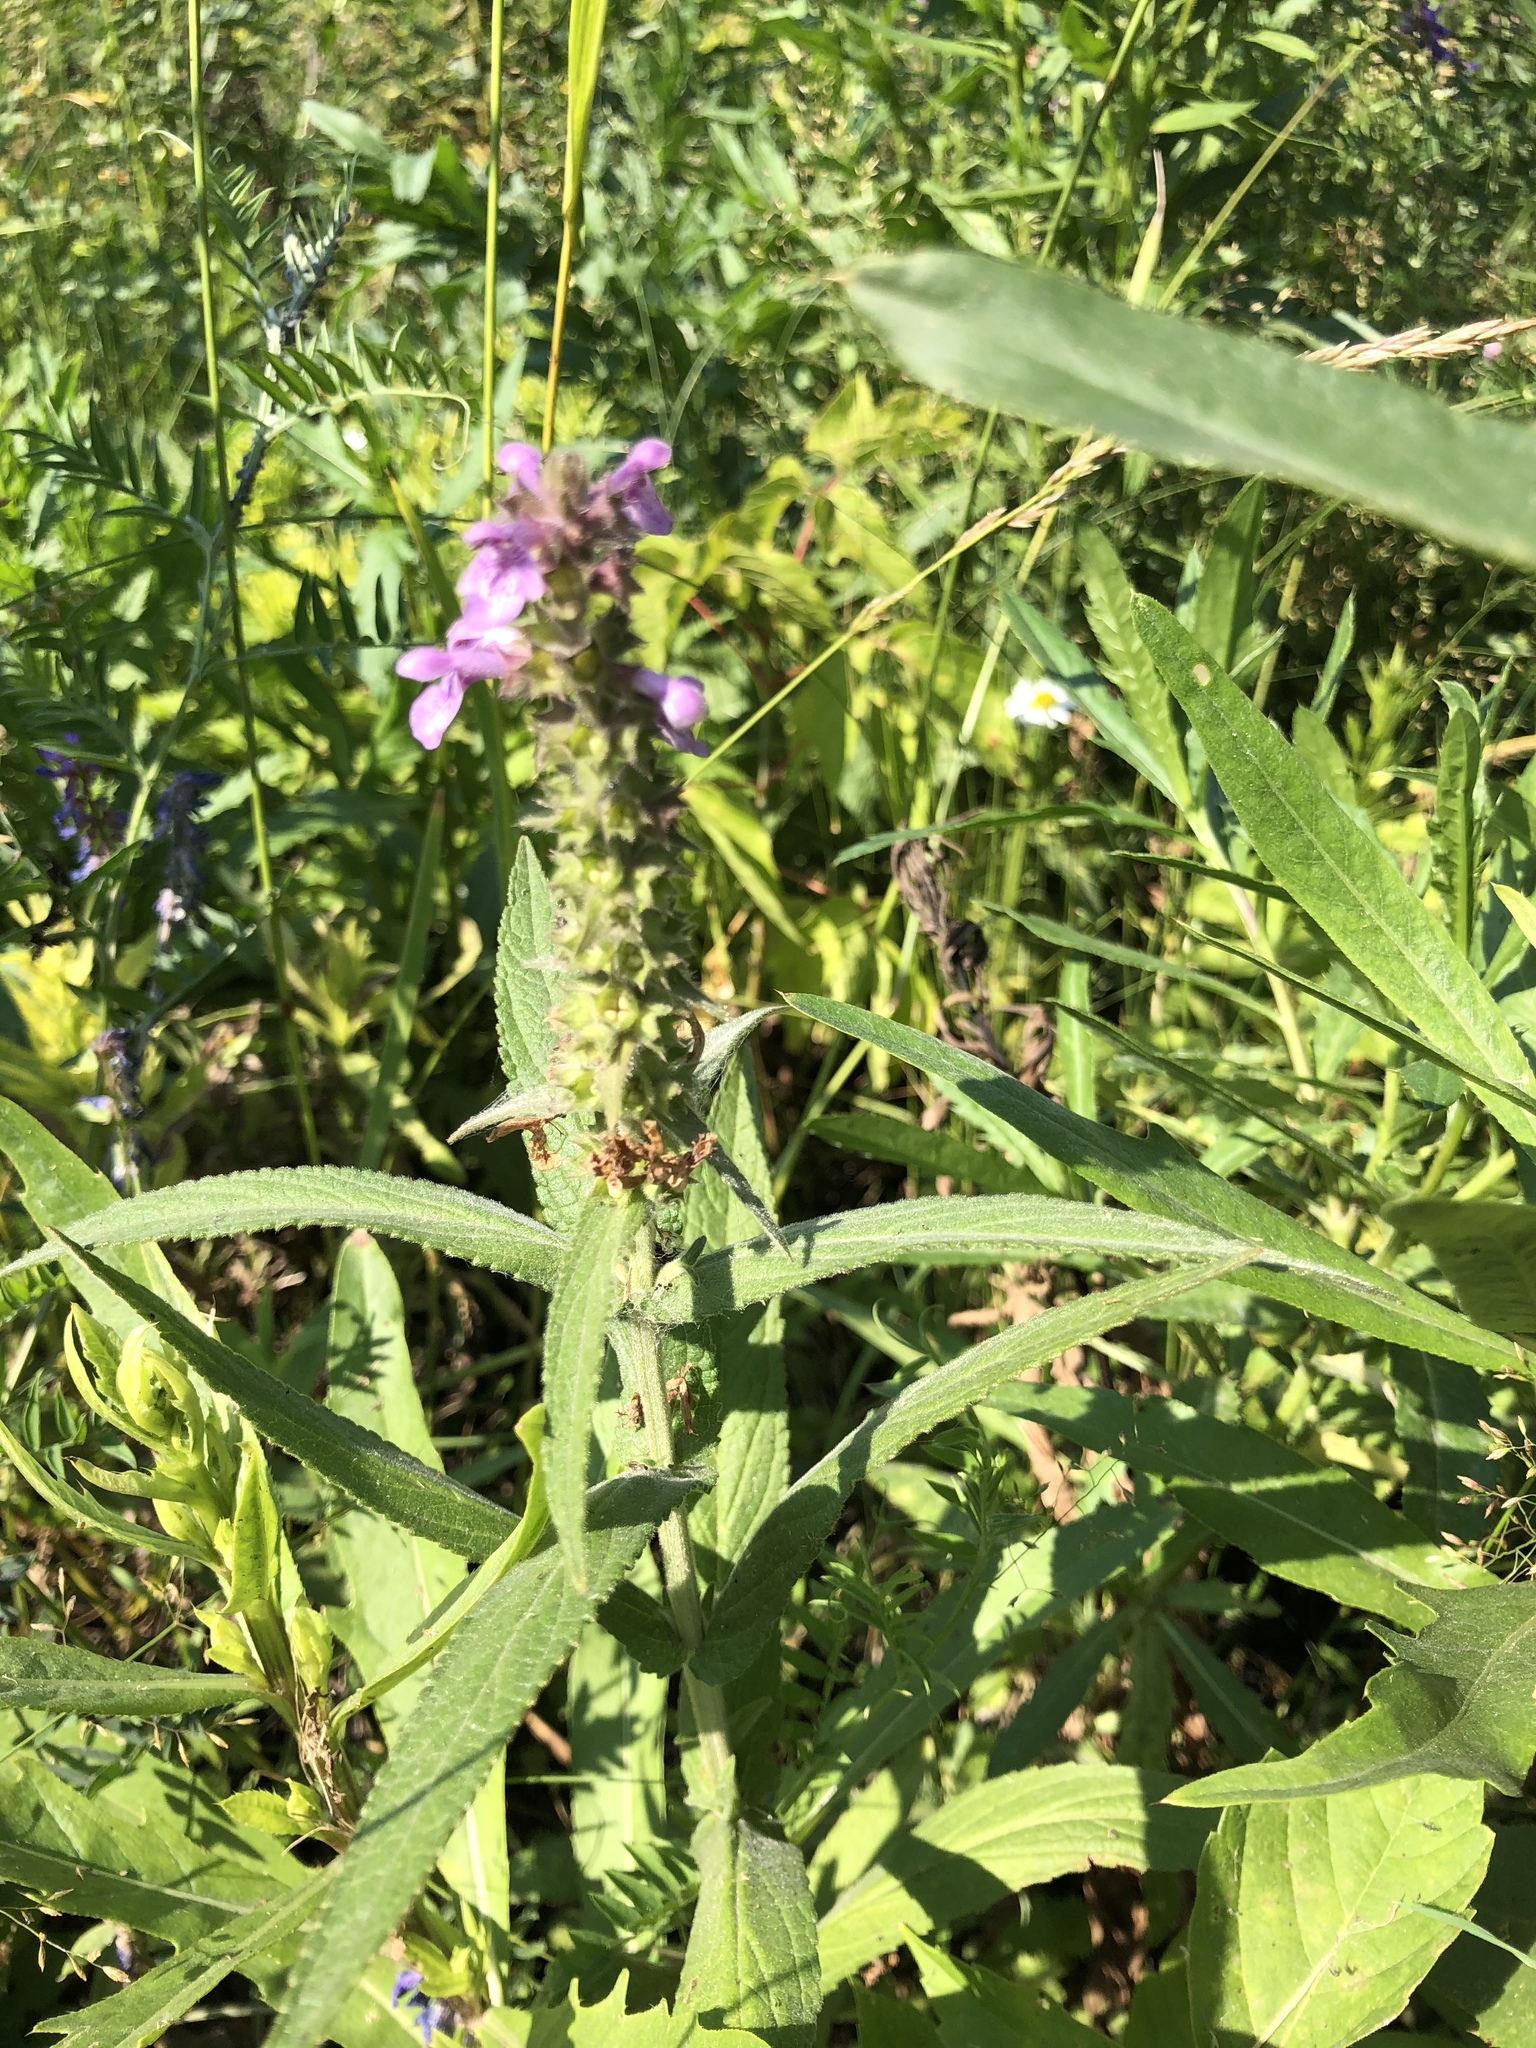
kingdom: Plantae
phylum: Tracheophyta
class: Magnoliopsida
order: Lamiales
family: Lamiaceae
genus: Stachys
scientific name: Stachys palustris
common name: Marsh woundwort
